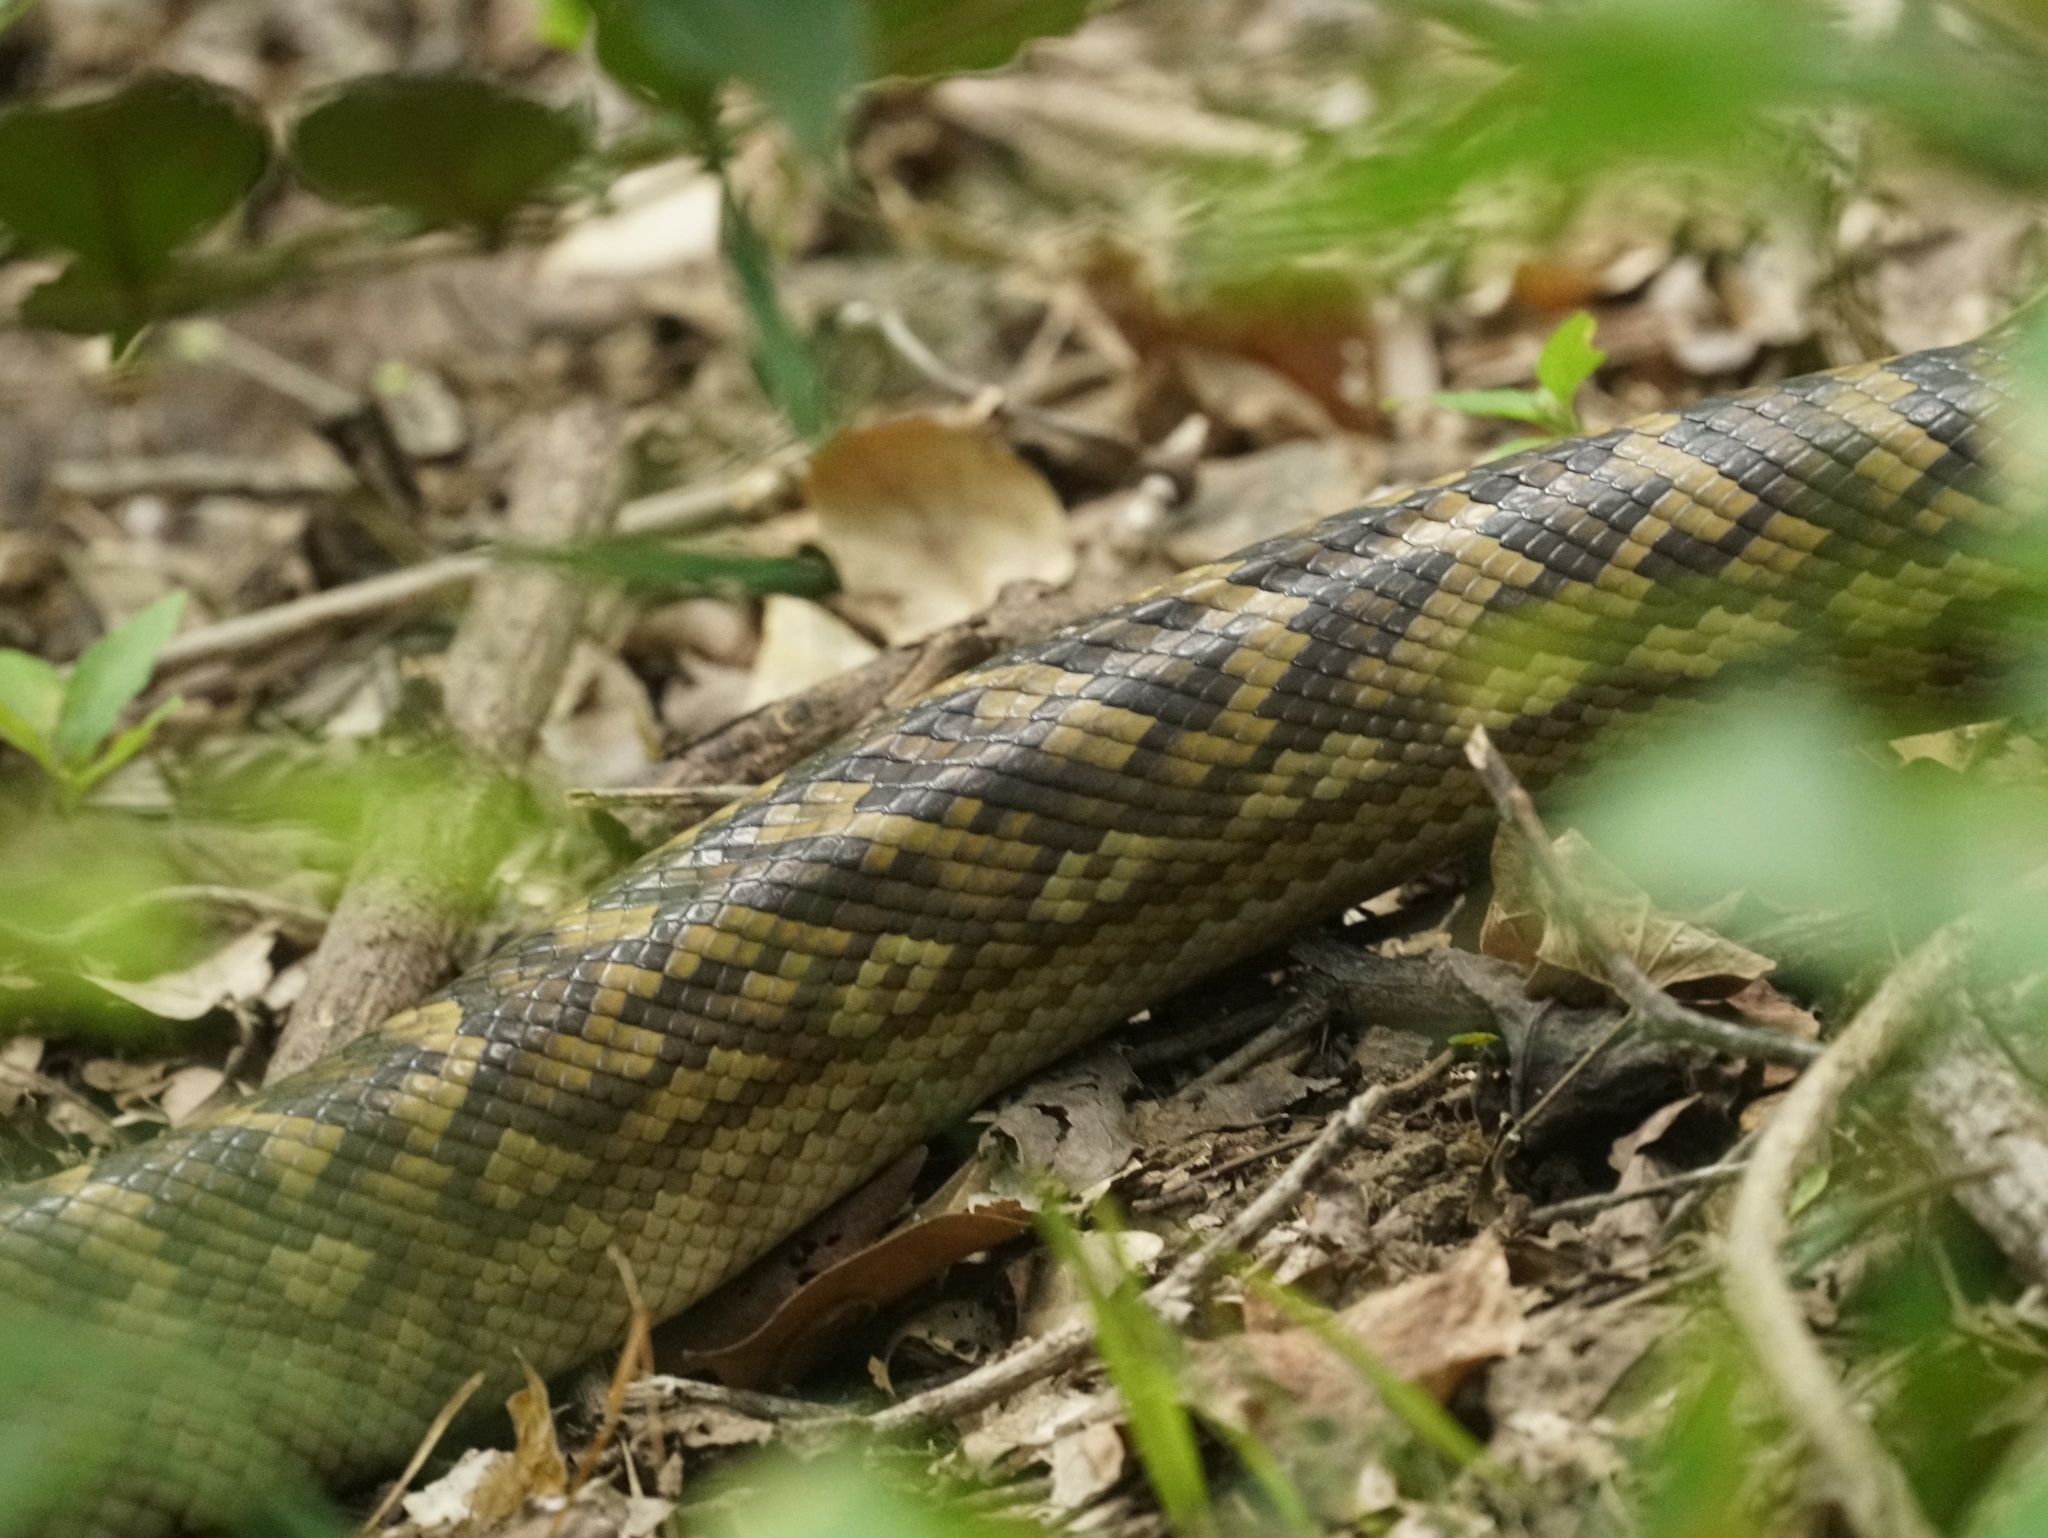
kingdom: Animalia
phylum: Chordata
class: Squamata
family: Pythonidae
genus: Simalia
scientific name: Simalia kinghorni
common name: Scrub python
